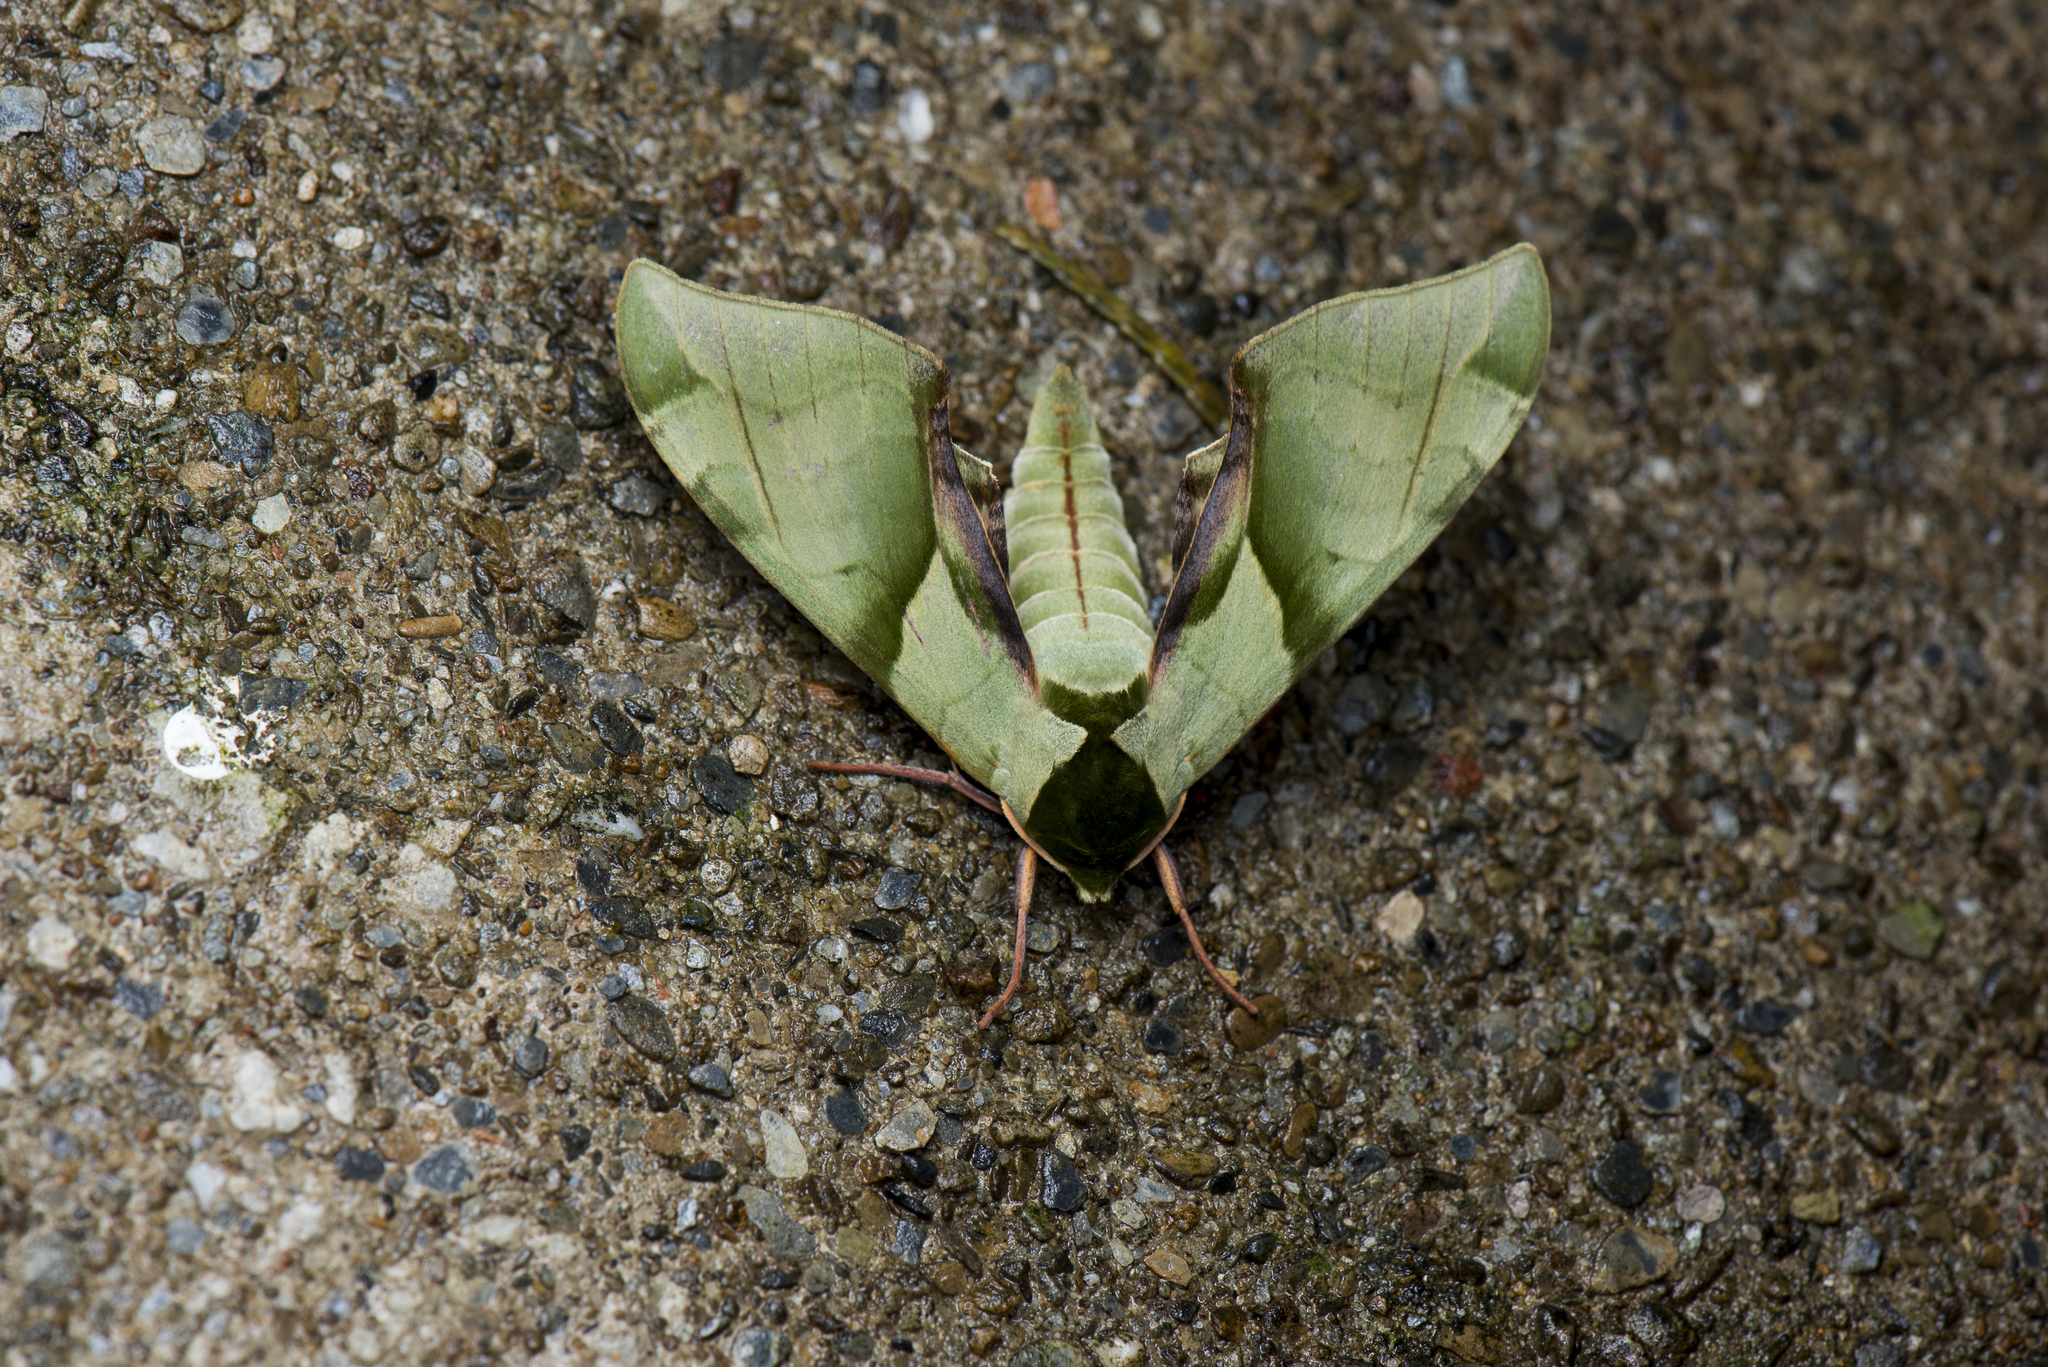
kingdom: Animalia
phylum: Arthropoda
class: Insecta
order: Lepidoptera
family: Sphingidae
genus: Callambulyx
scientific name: Callambulyx tatarinovii
